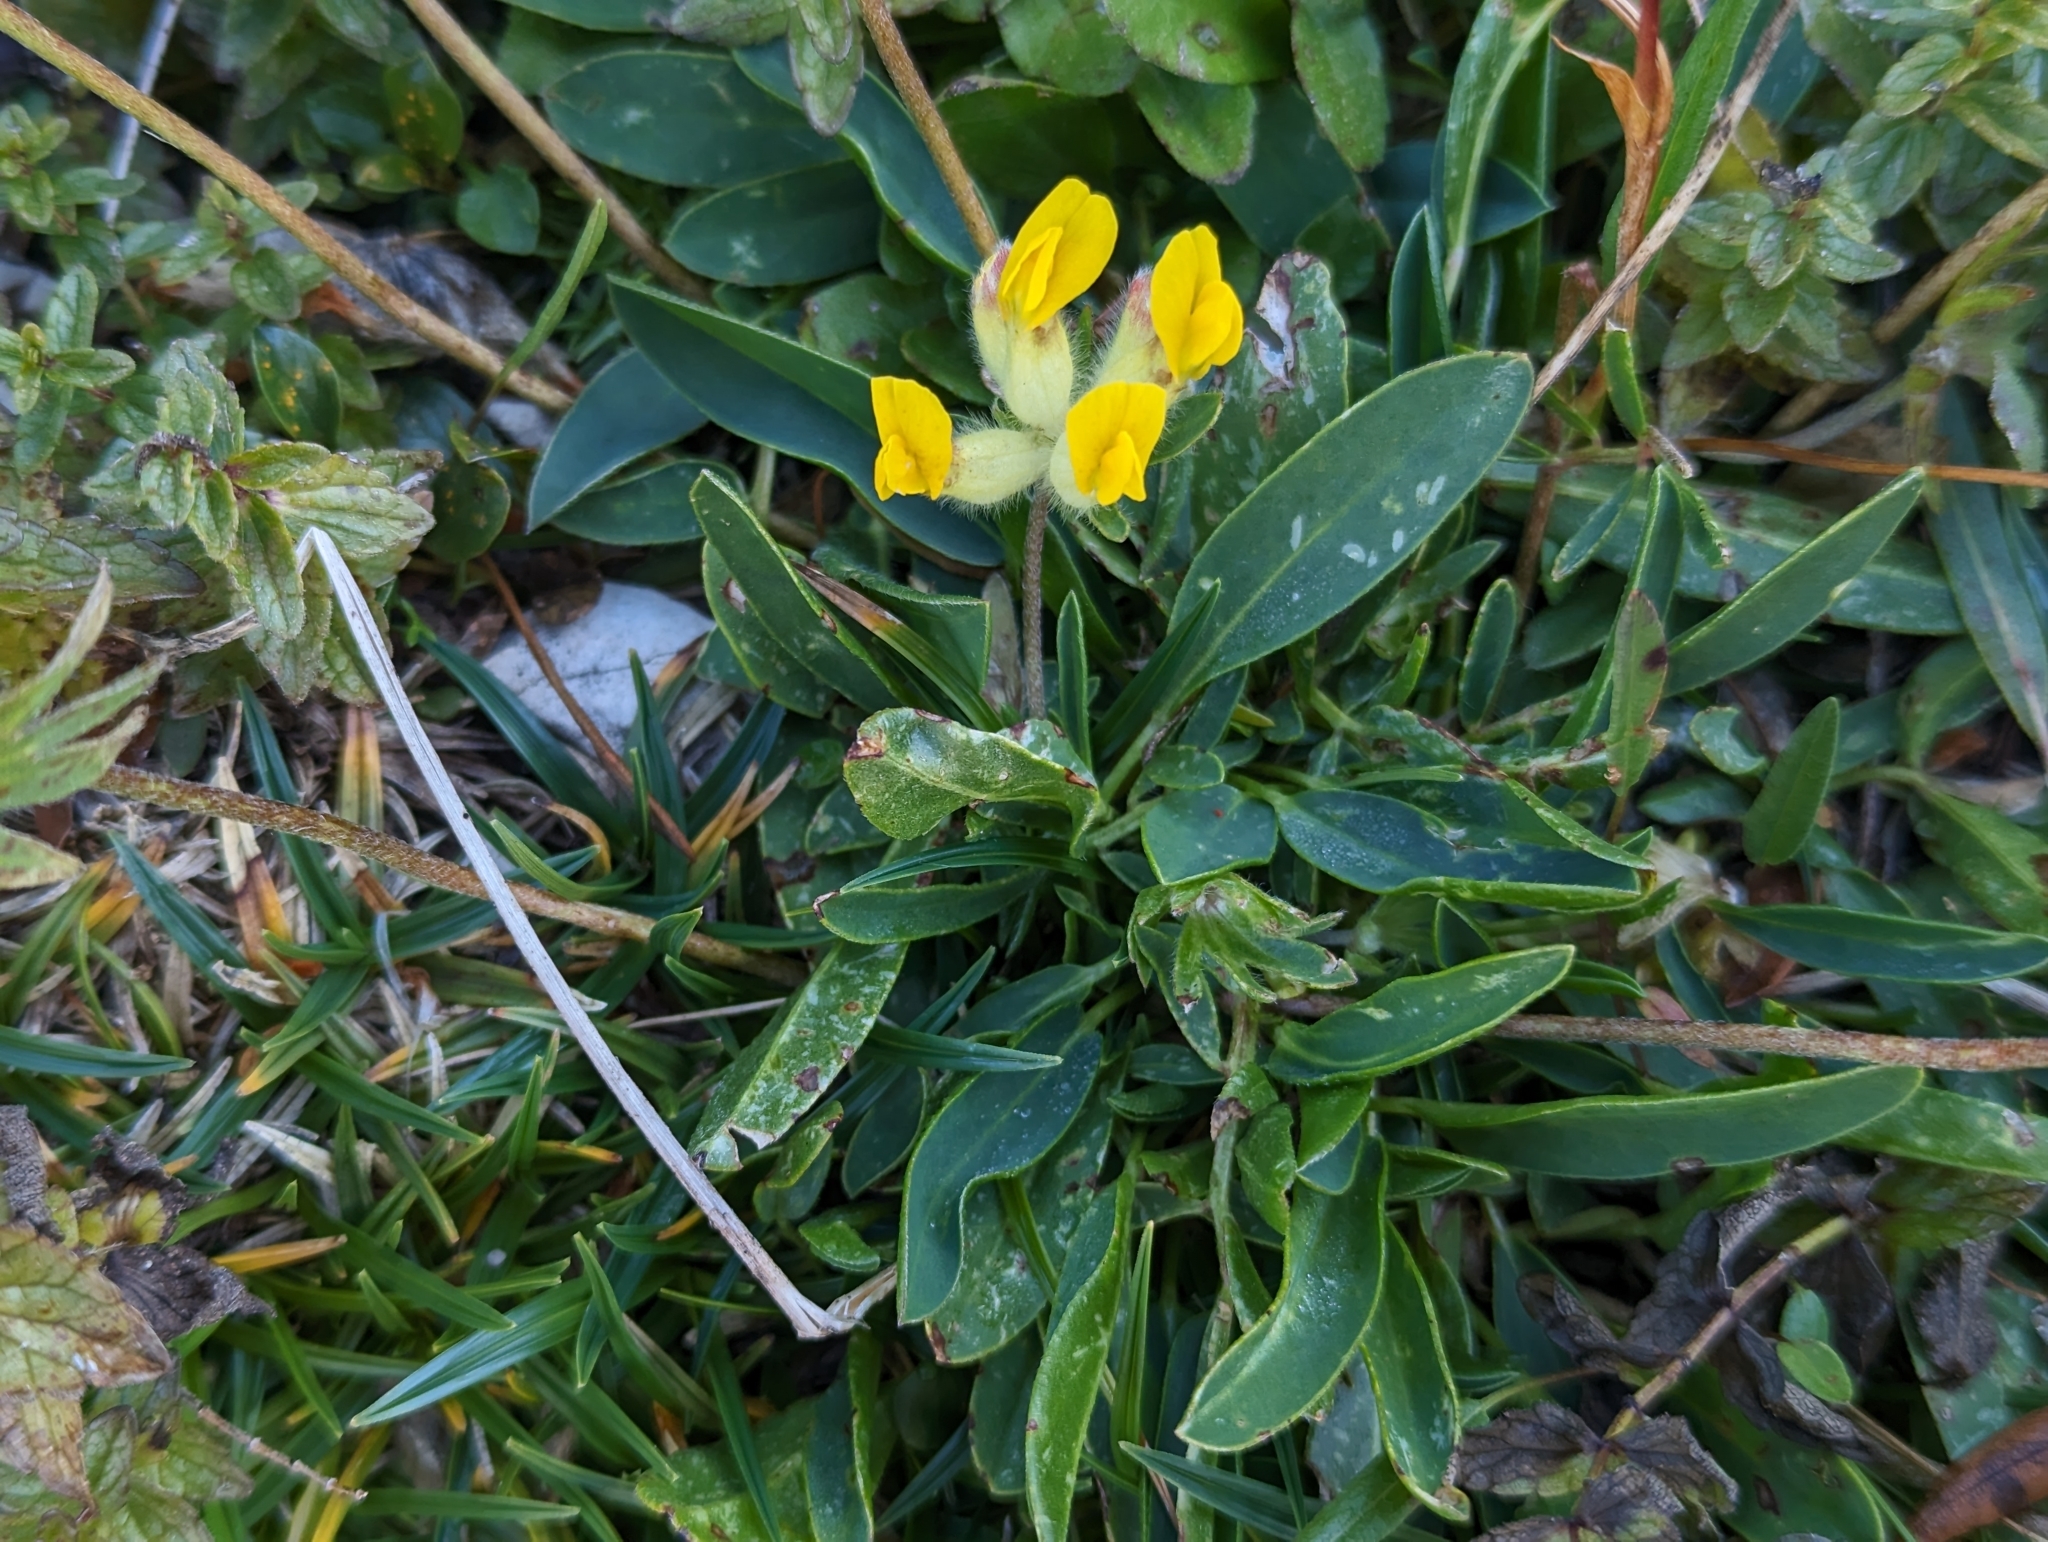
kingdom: Plantae
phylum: Tracheophyta
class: Magnoliopsida
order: Fabales
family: Fabaceae
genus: Anthyllis
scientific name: Anthyllis vulneraria
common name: Kidney vetch
